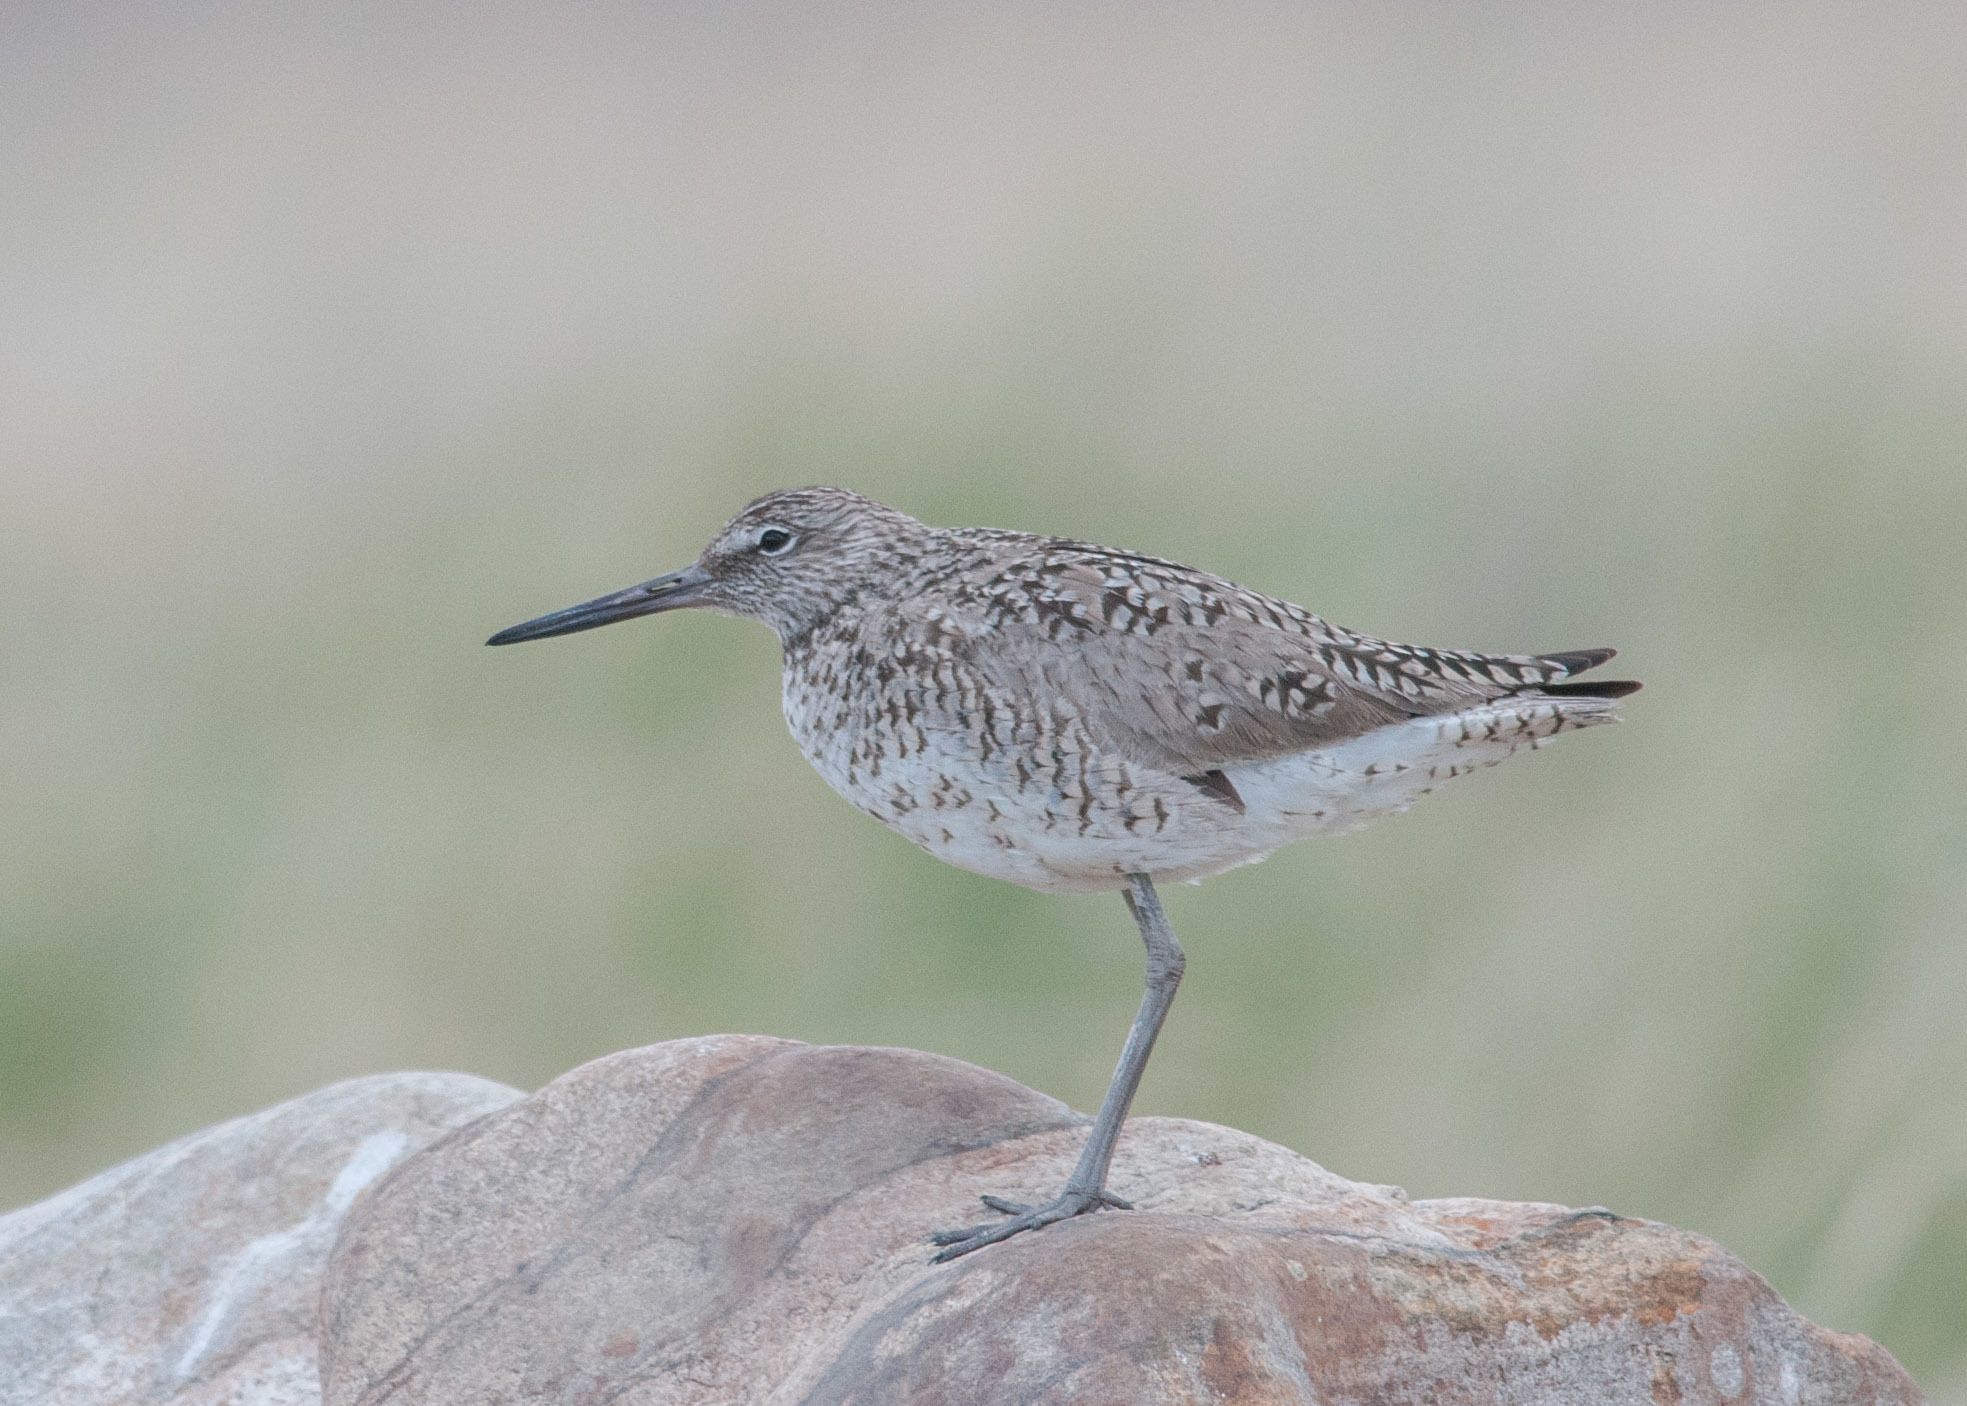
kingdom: Animalia
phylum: Chordata
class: Aves
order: Charadriiformes
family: Scolopacidae
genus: Tringa
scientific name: Tringa semipalmata
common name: Willet
